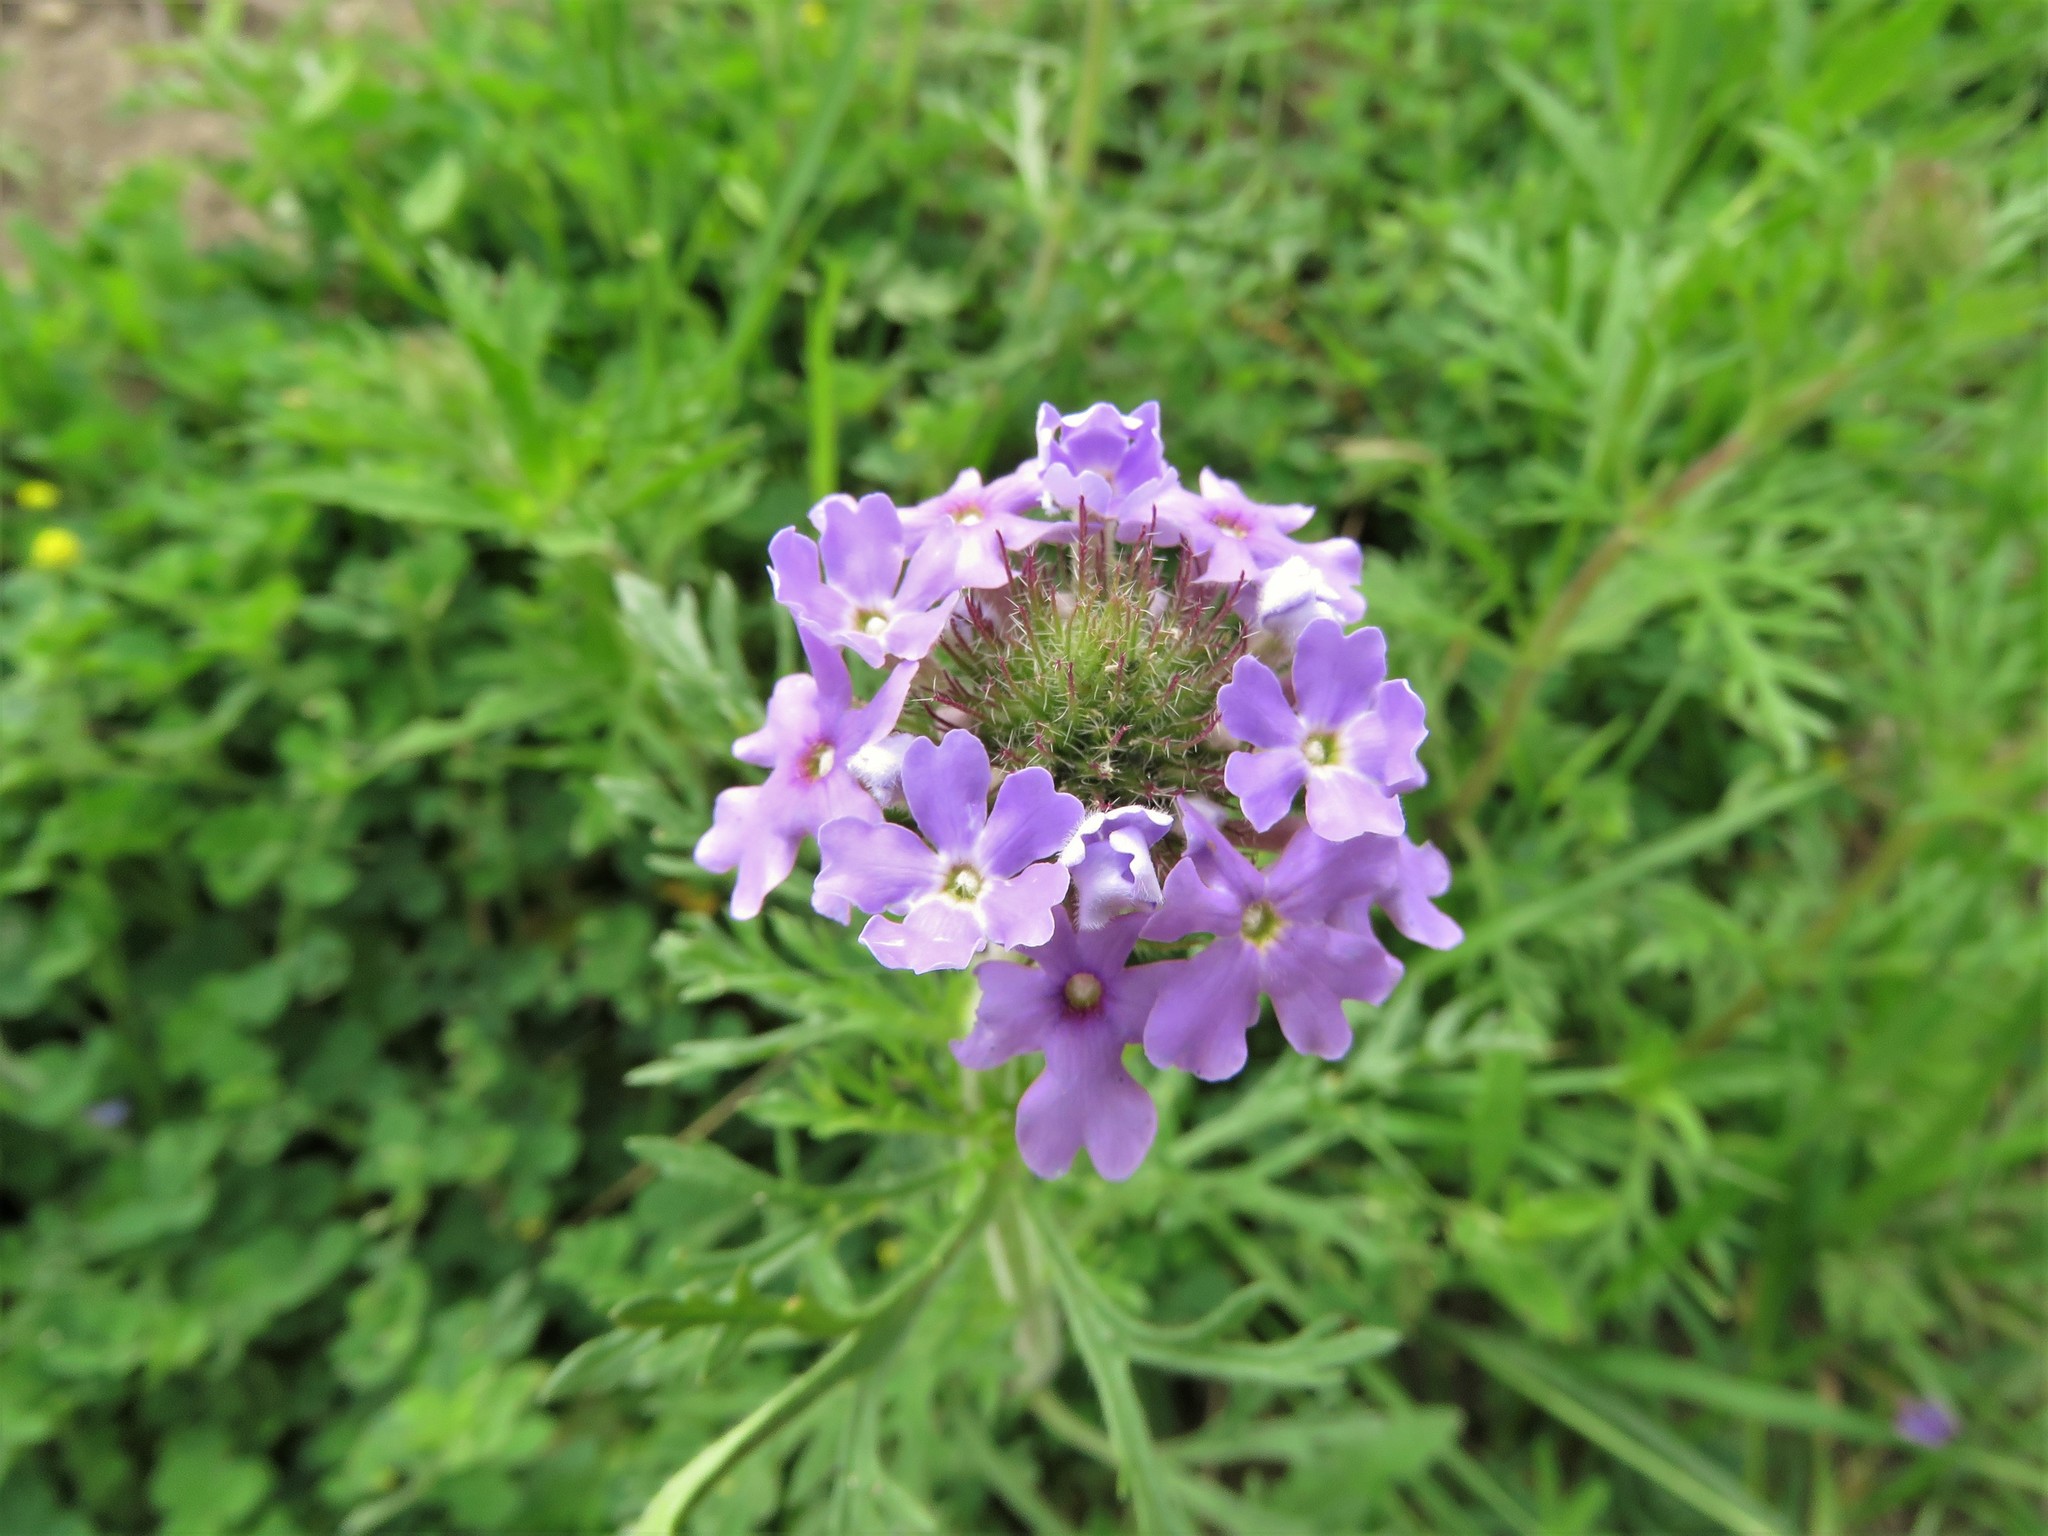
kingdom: Plantae
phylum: Tracheophyta
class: Magnoliopsida
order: Lamiales
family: Verbenaceae
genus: Verbena
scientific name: Verbena bipinnatifida
